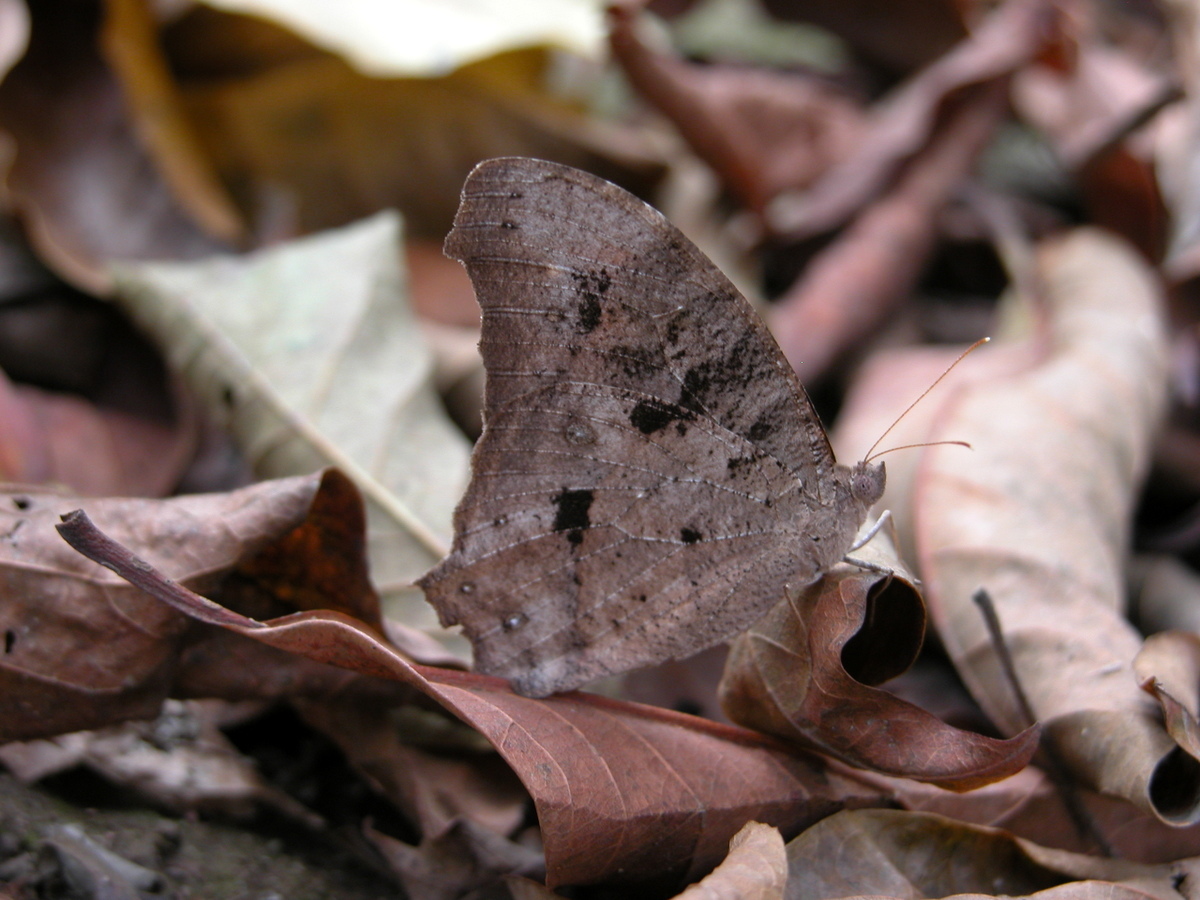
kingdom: Animalia
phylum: Arthropoda
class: Insecta
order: Lepidoptera
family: Nymphalidae
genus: Melanitis
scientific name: Melanitis leda
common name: Twilight brown
